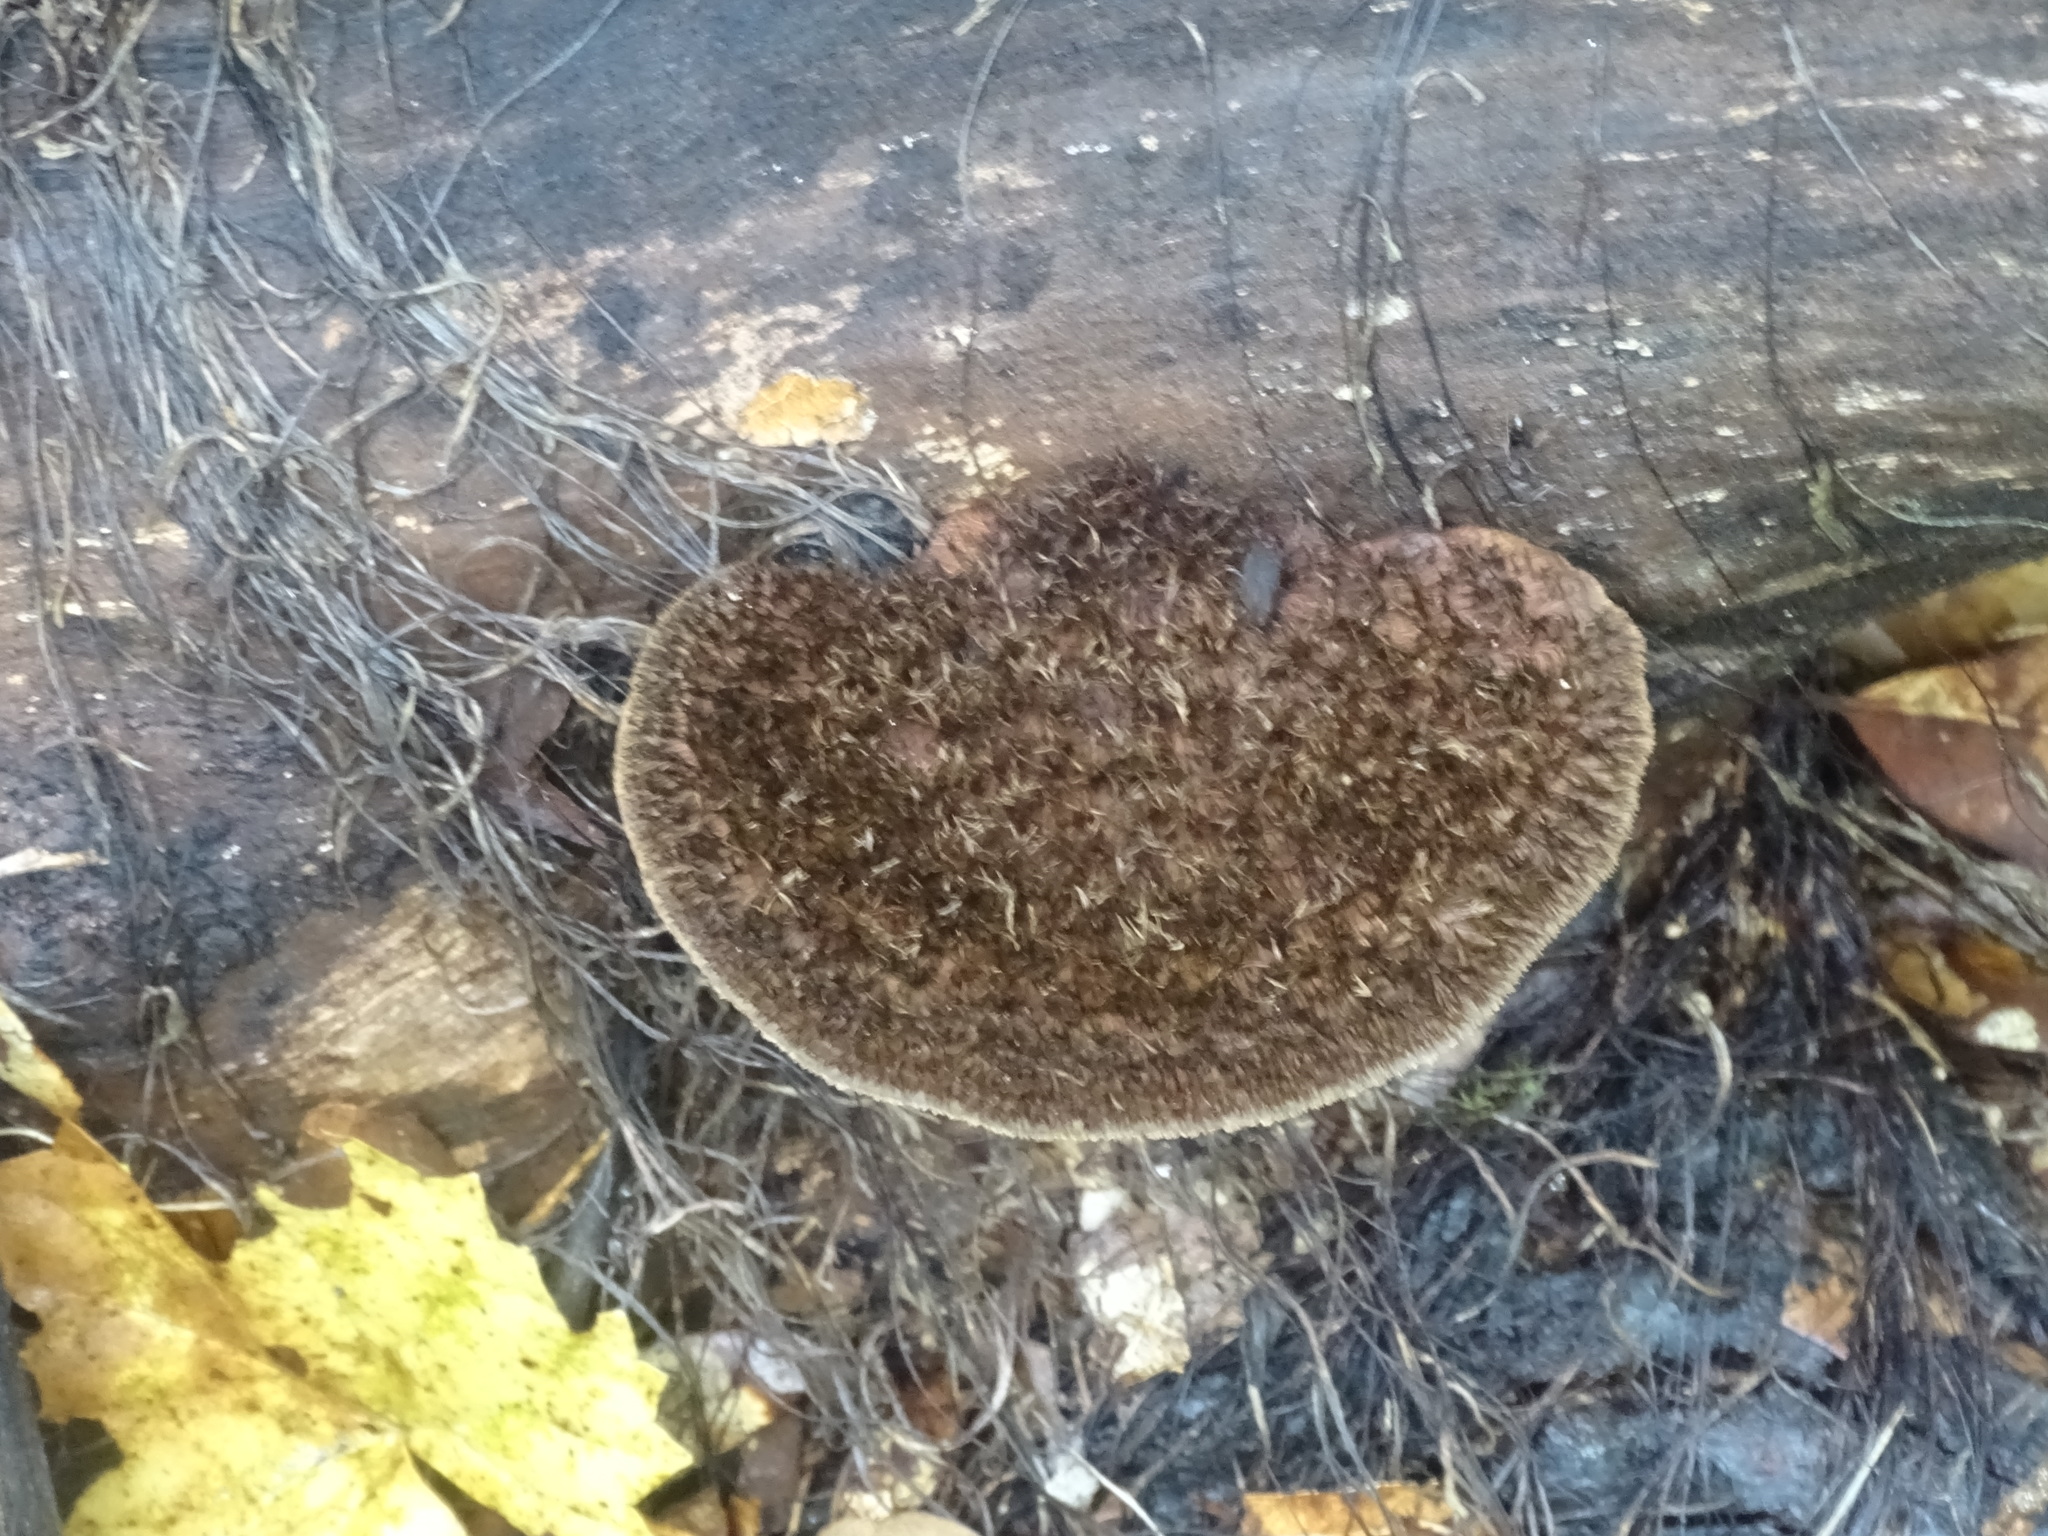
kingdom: Fungi
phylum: Basidiomycota
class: Agaricomycetes
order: Polyporales
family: Cerrenaceae
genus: Cerrena
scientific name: Cerrena hydnoides
